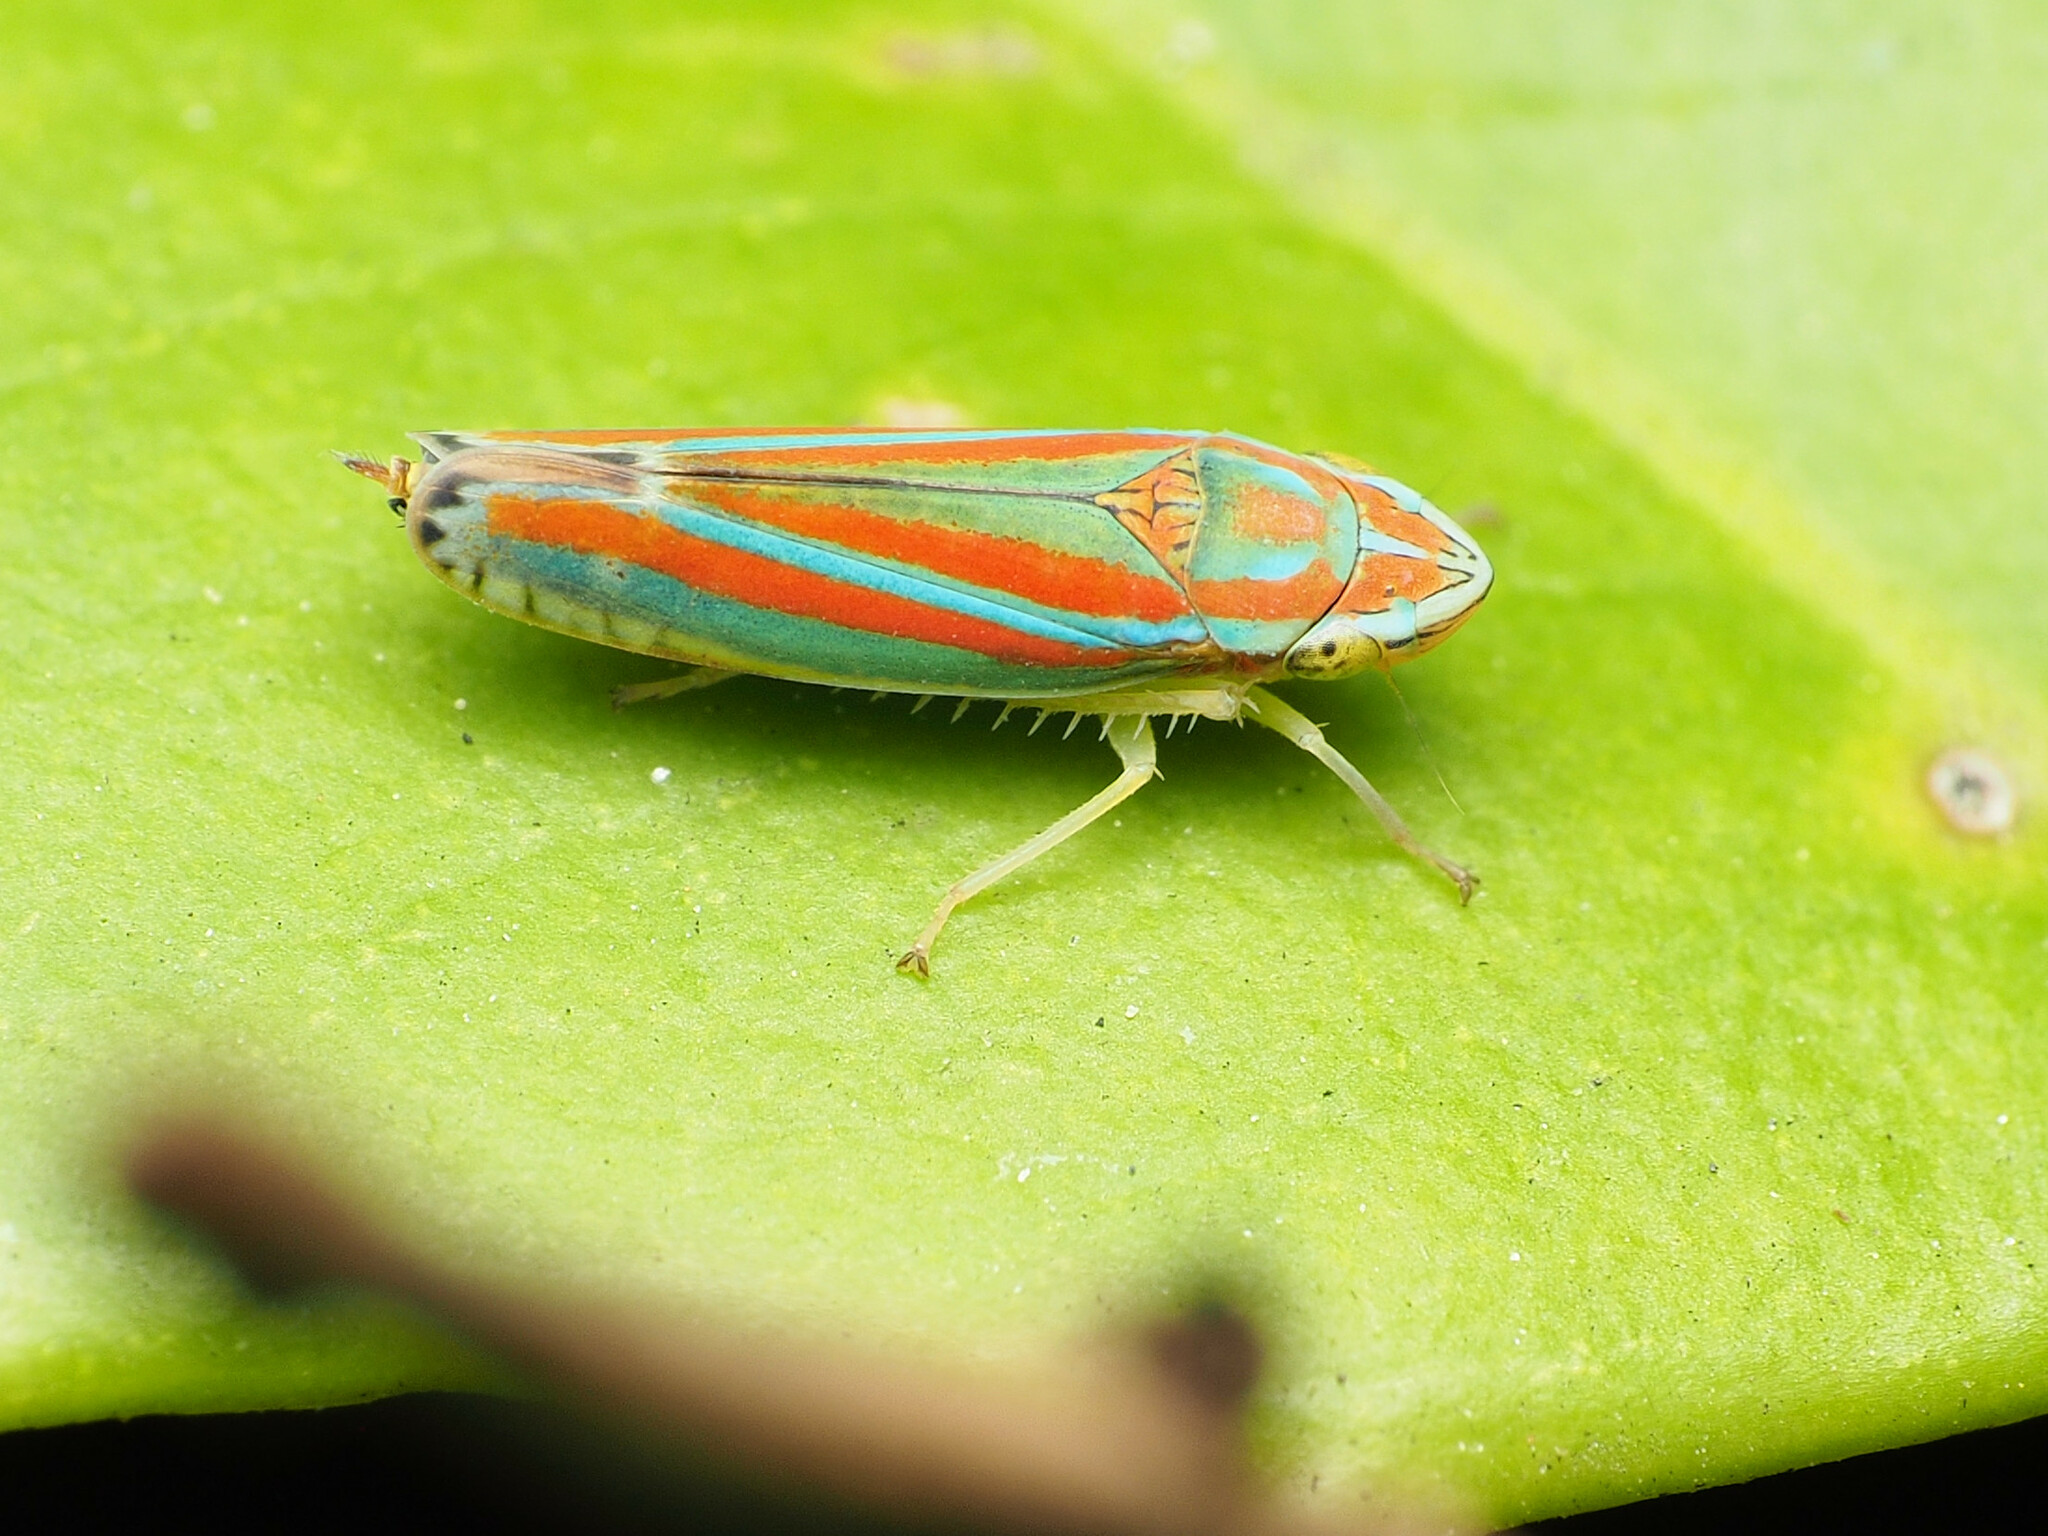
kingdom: Animalia
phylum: Arthropoda
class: Insecta
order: Hemiptera
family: Cicadellidae
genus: Graphocephala
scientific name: Graphocephala versuta
